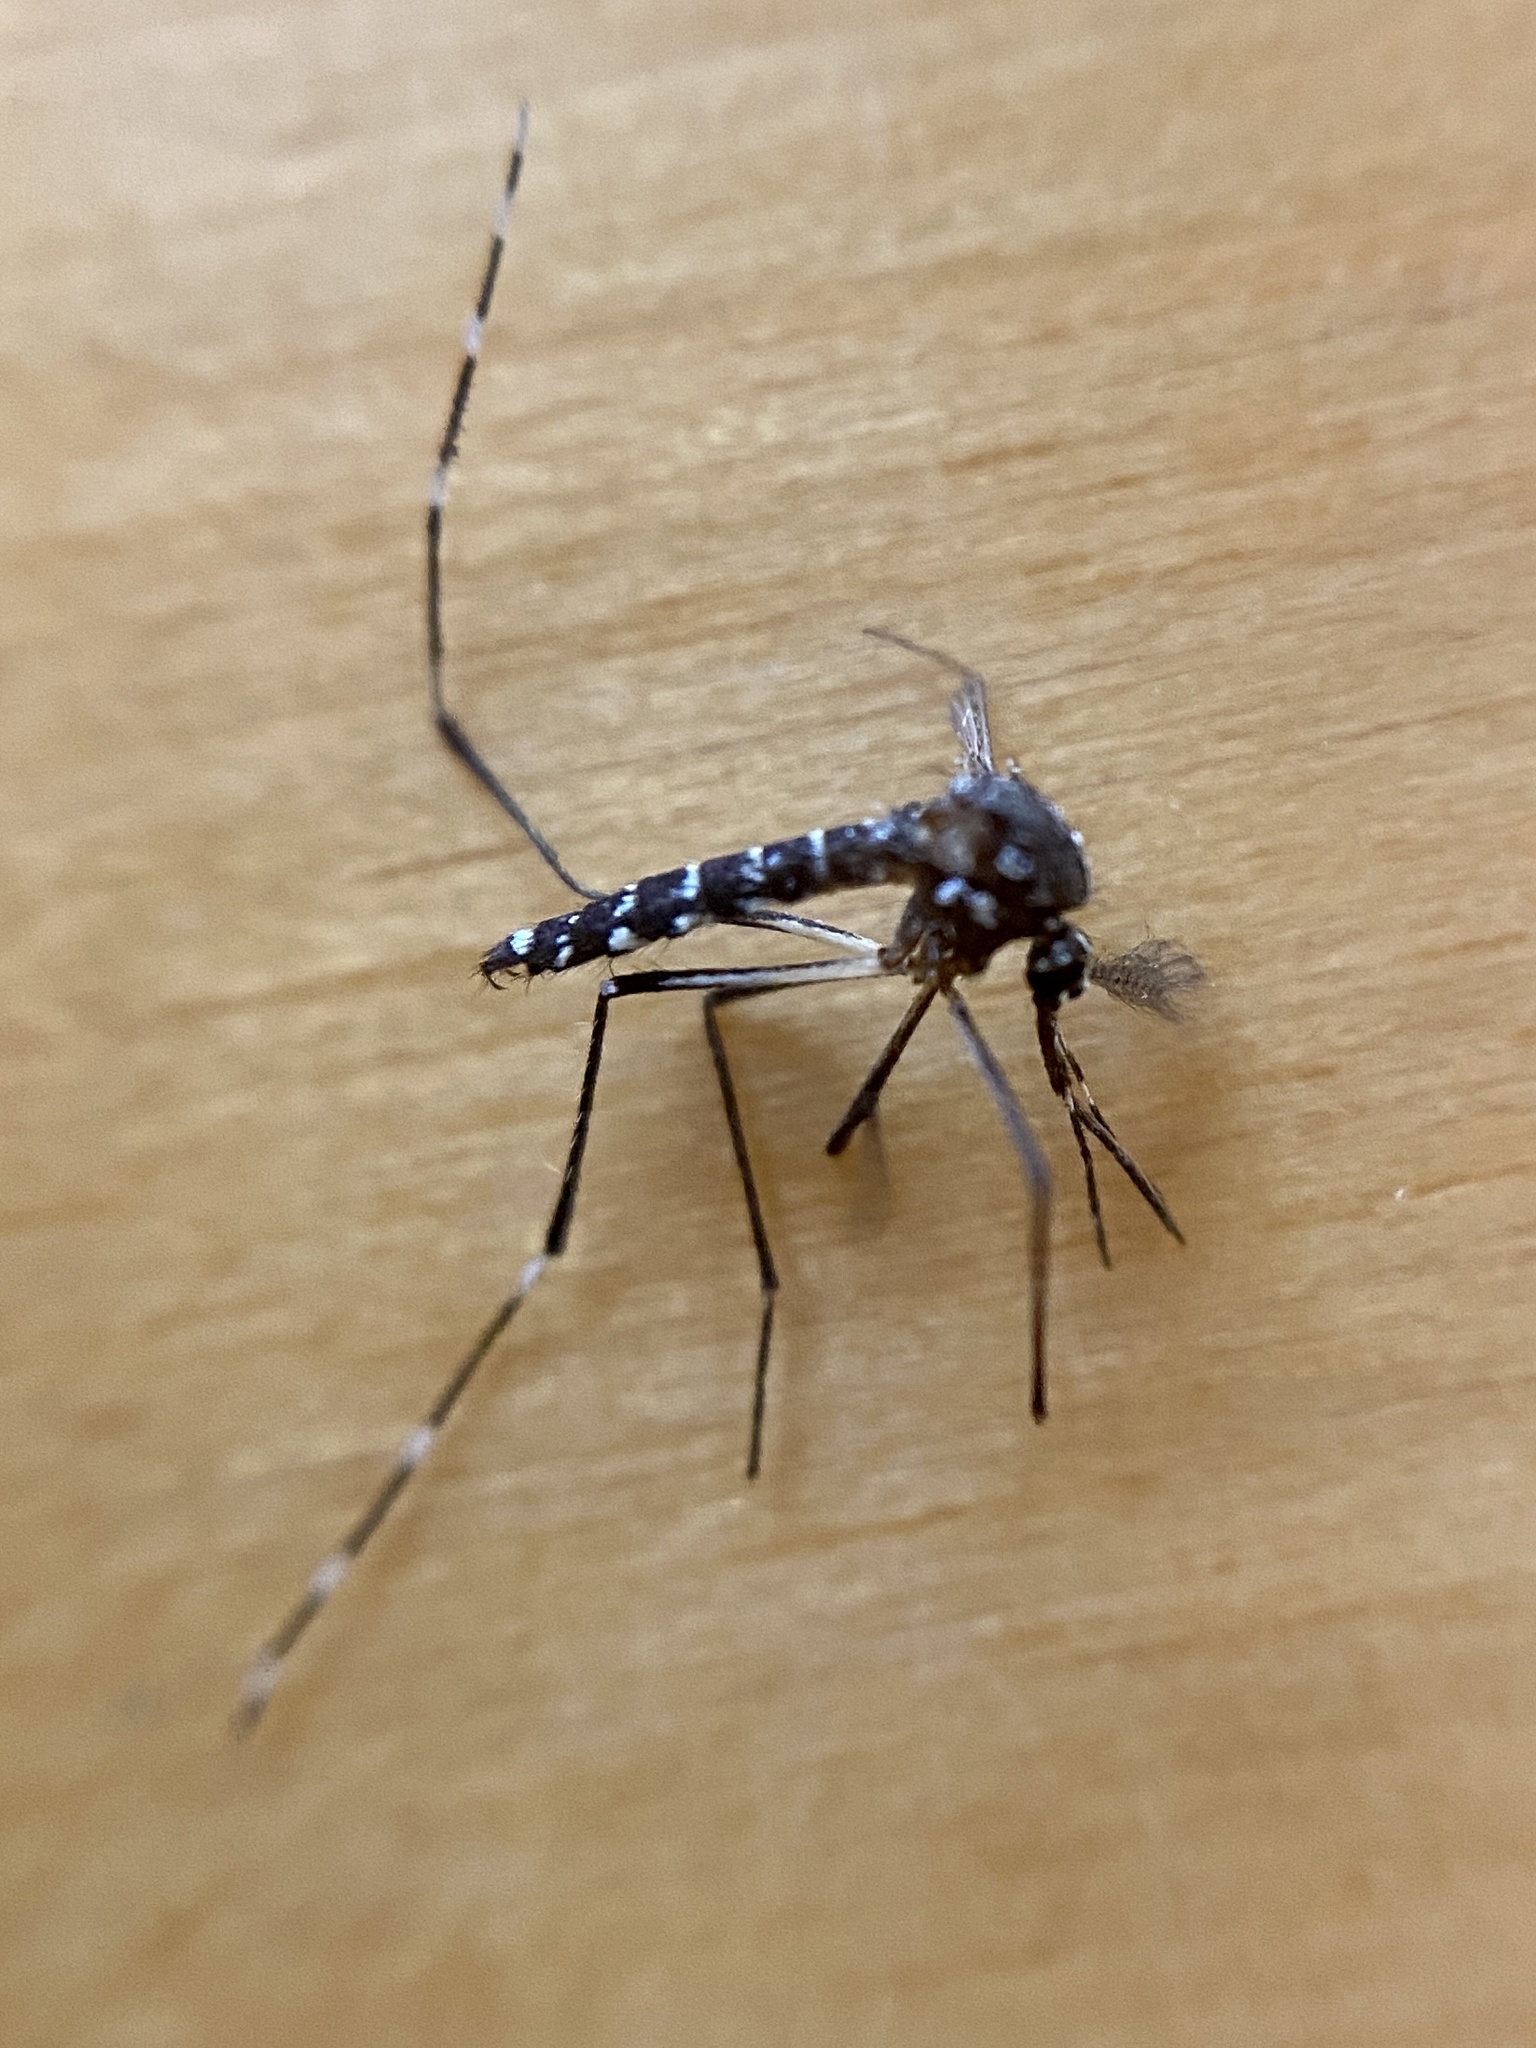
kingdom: Animalia
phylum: Arthropoda
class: Insecta
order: Diptera
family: Culicidae
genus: Aedes
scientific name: Aedes albopictus
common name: Tiger mosquito
